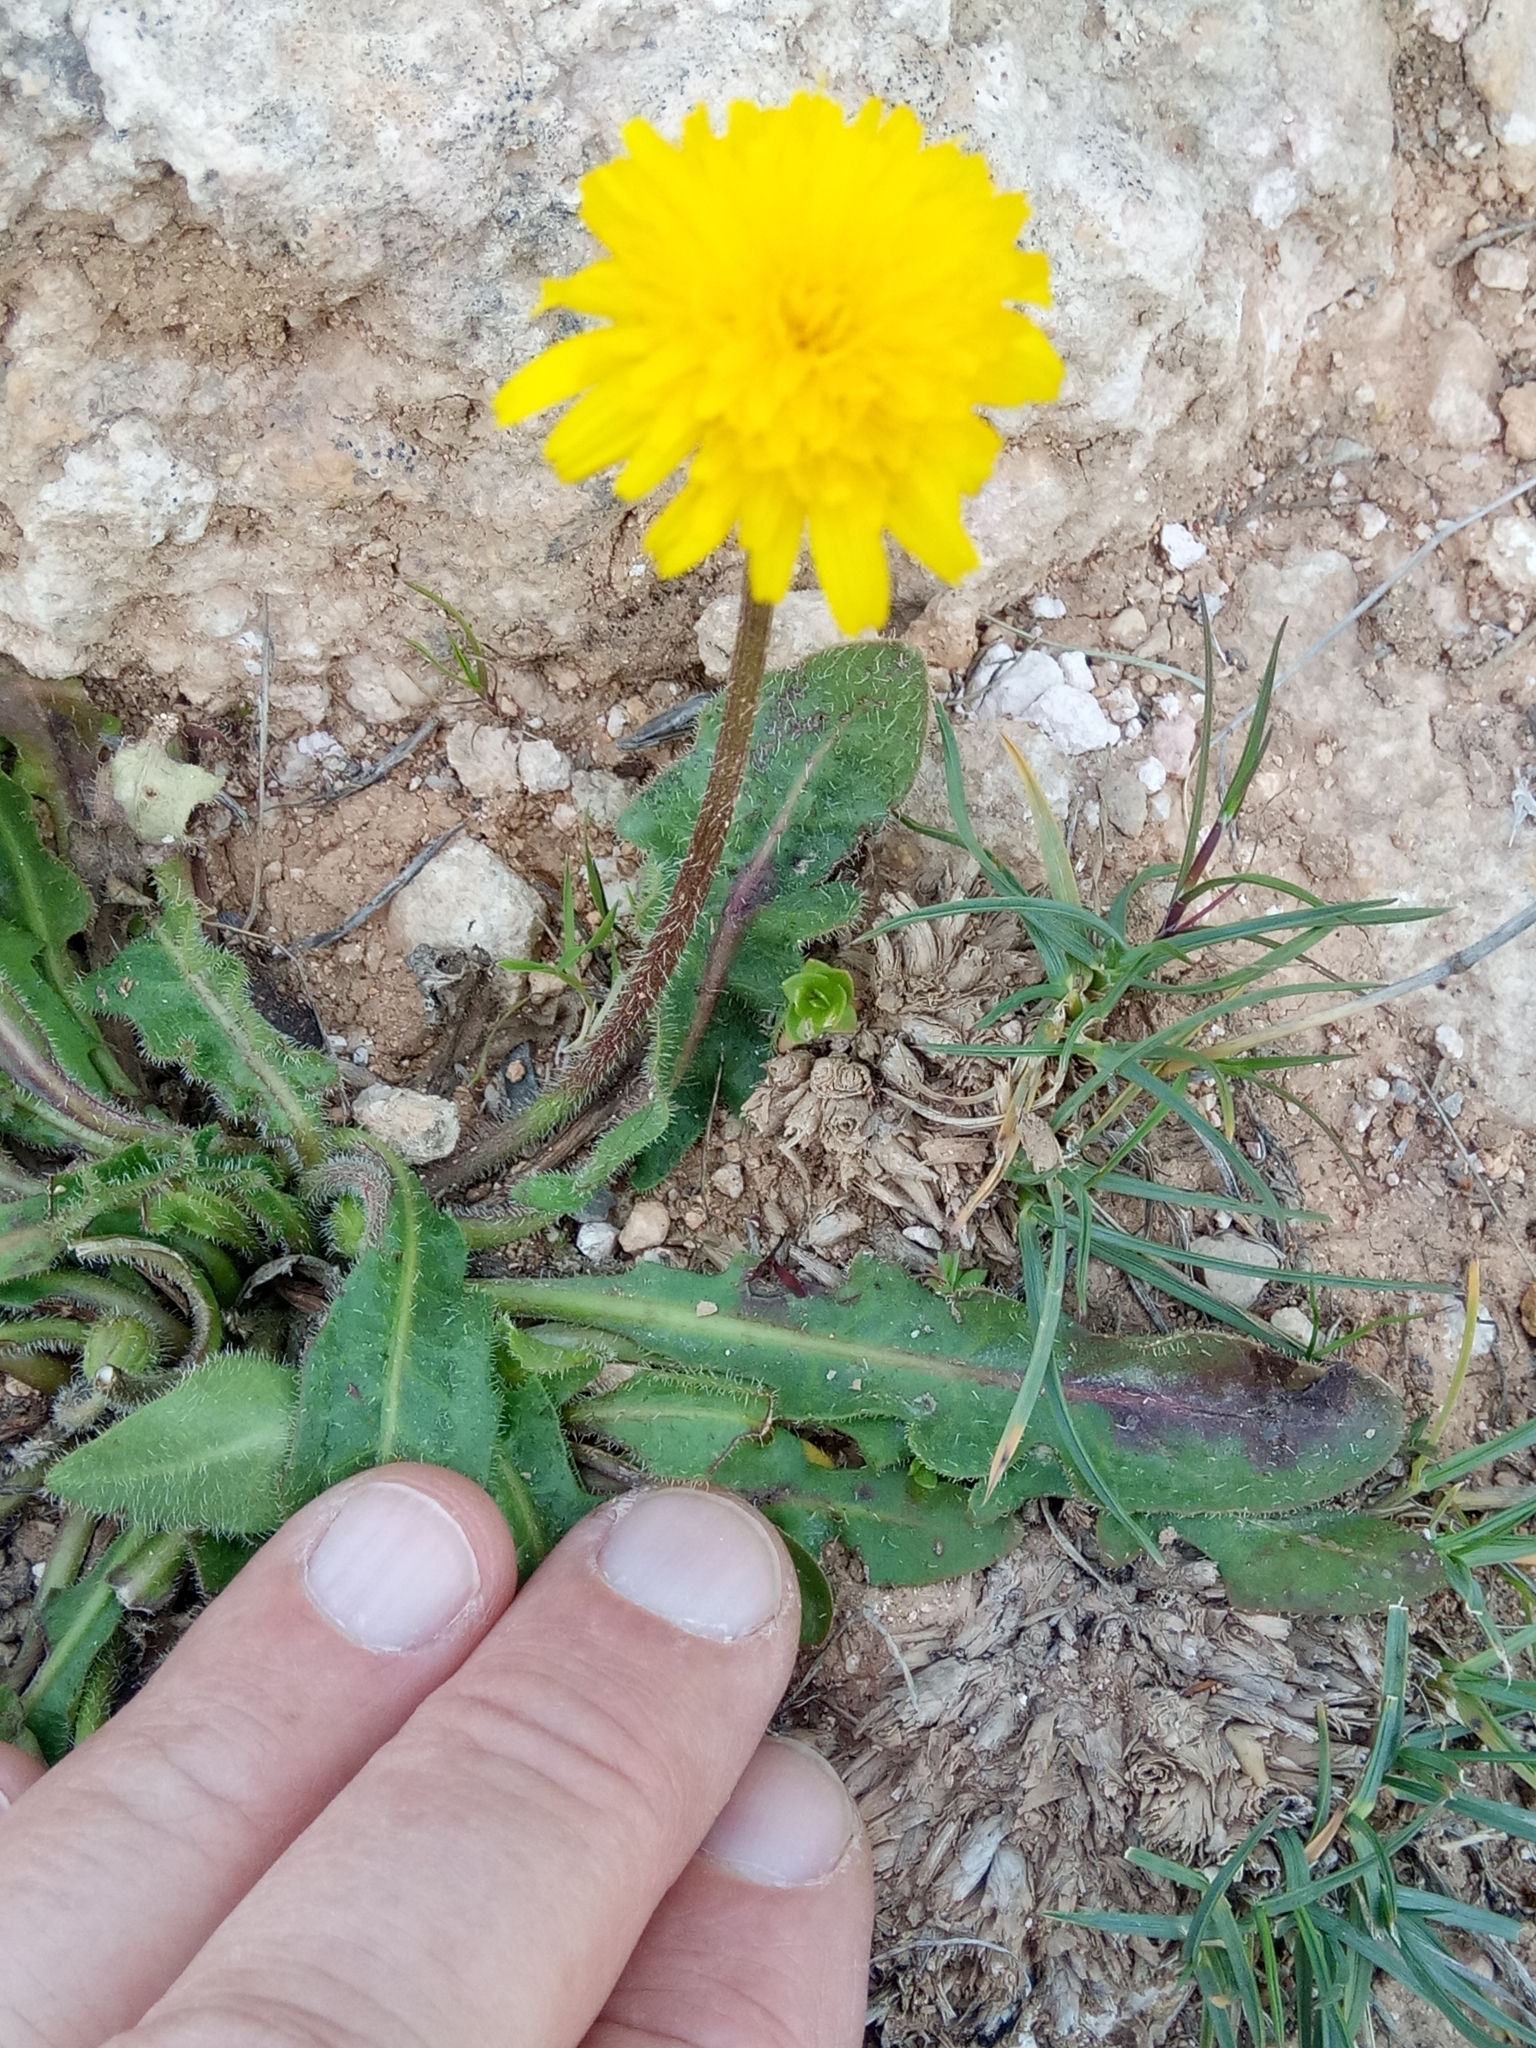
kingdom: Plantae
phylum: Tracheophyta
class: Magnoliopsida
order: Asterales
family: Asteraceae
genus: Leontodon
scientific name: Leontodon tuberosus
